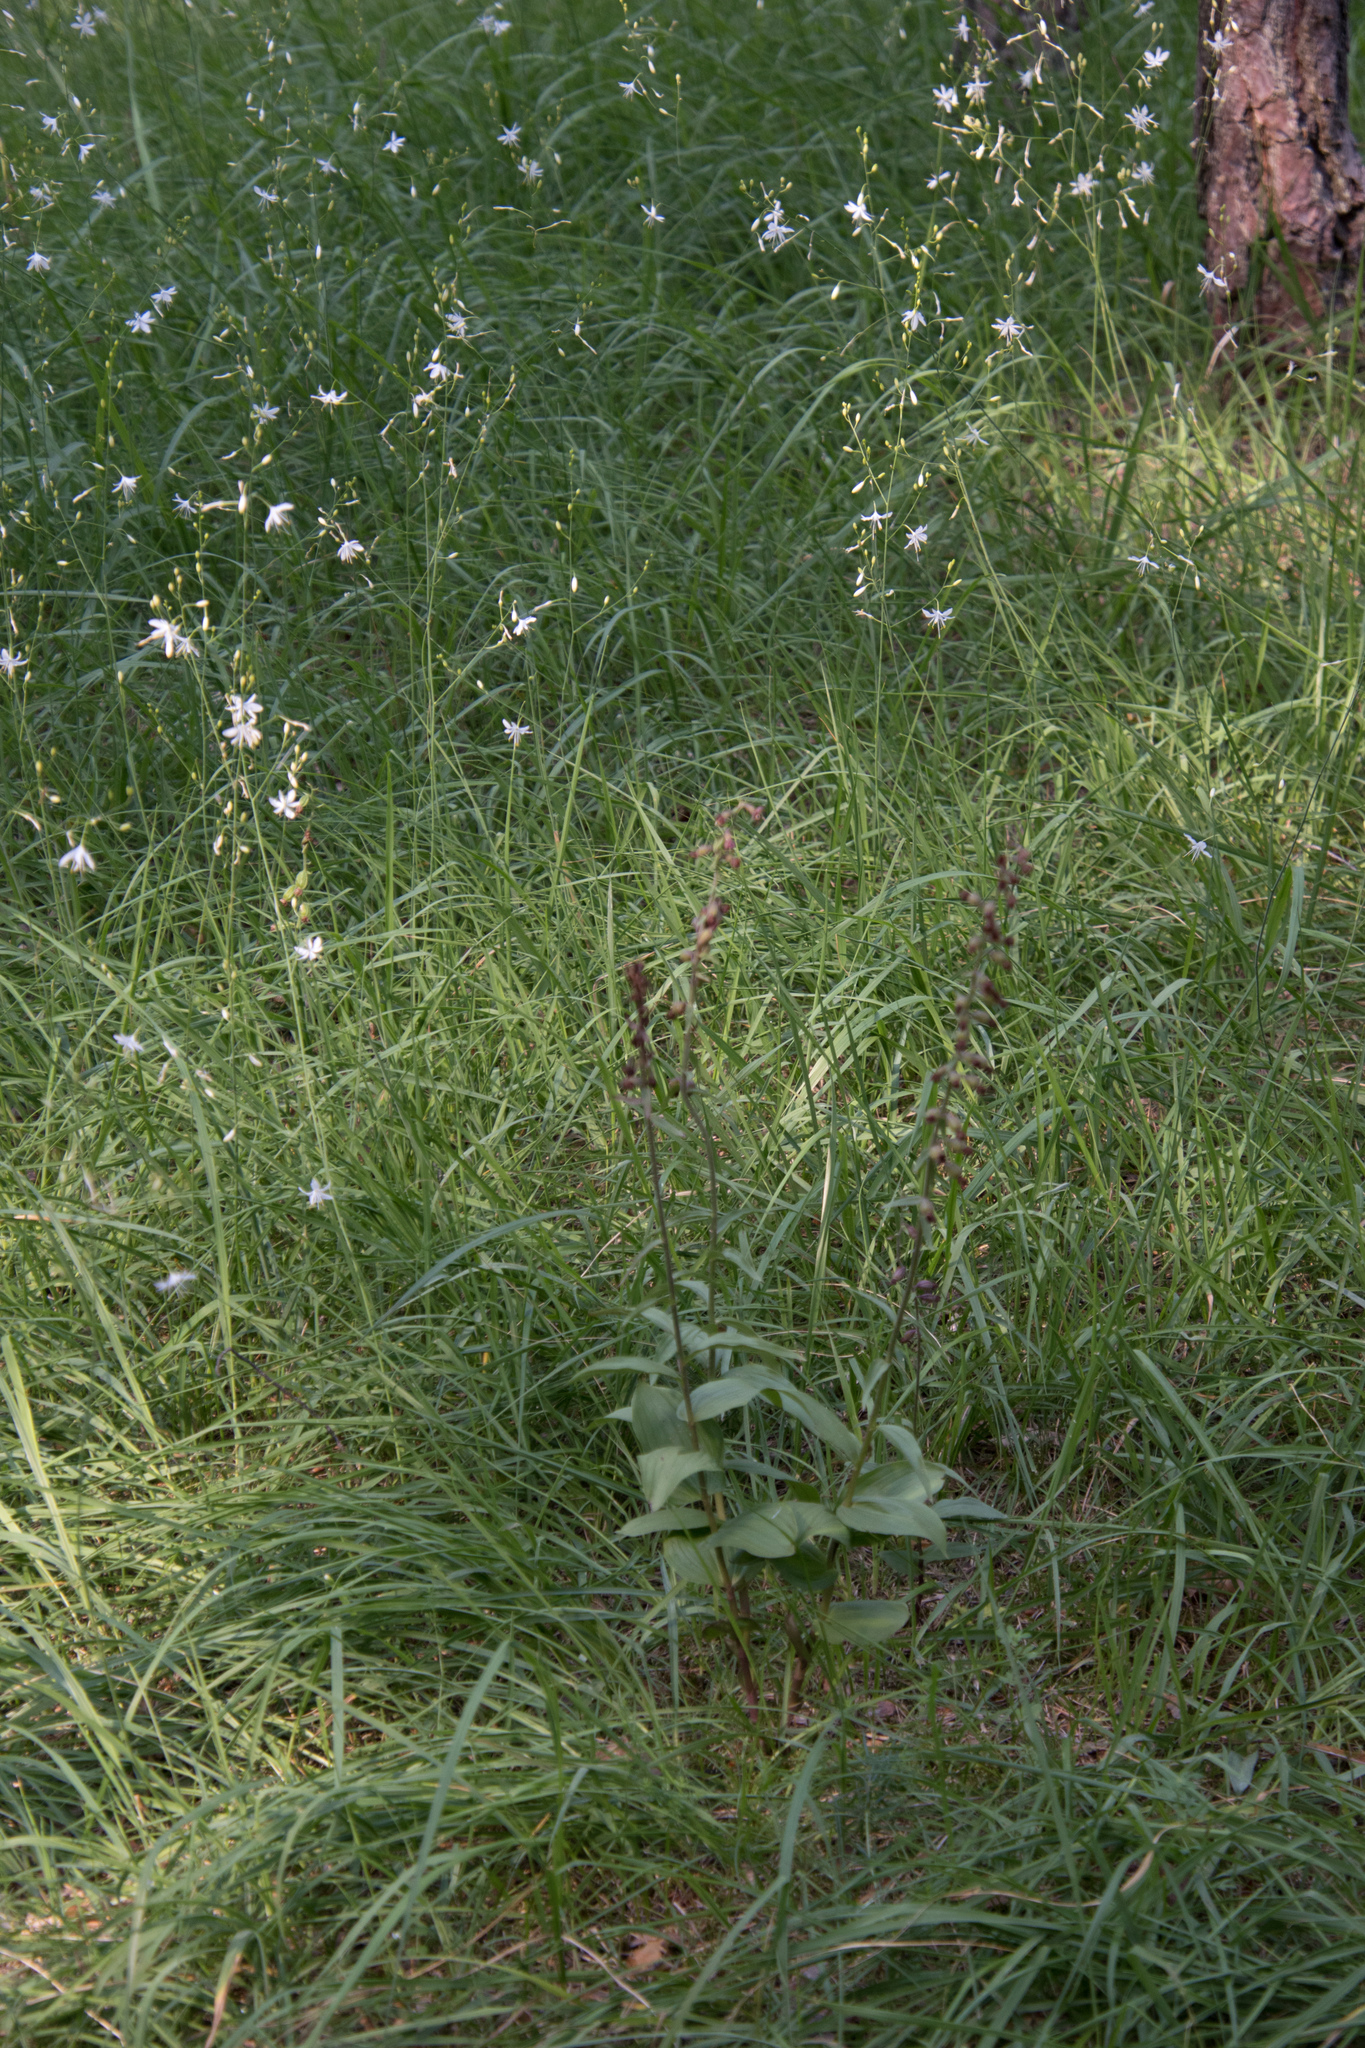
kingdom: Plantae
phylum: Tracheophyta
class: Liliopsida
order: Asparagales
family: Orchidaceae
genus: Epipactis
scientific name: Epipactis atrorubens
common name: Dark-red helleborine
